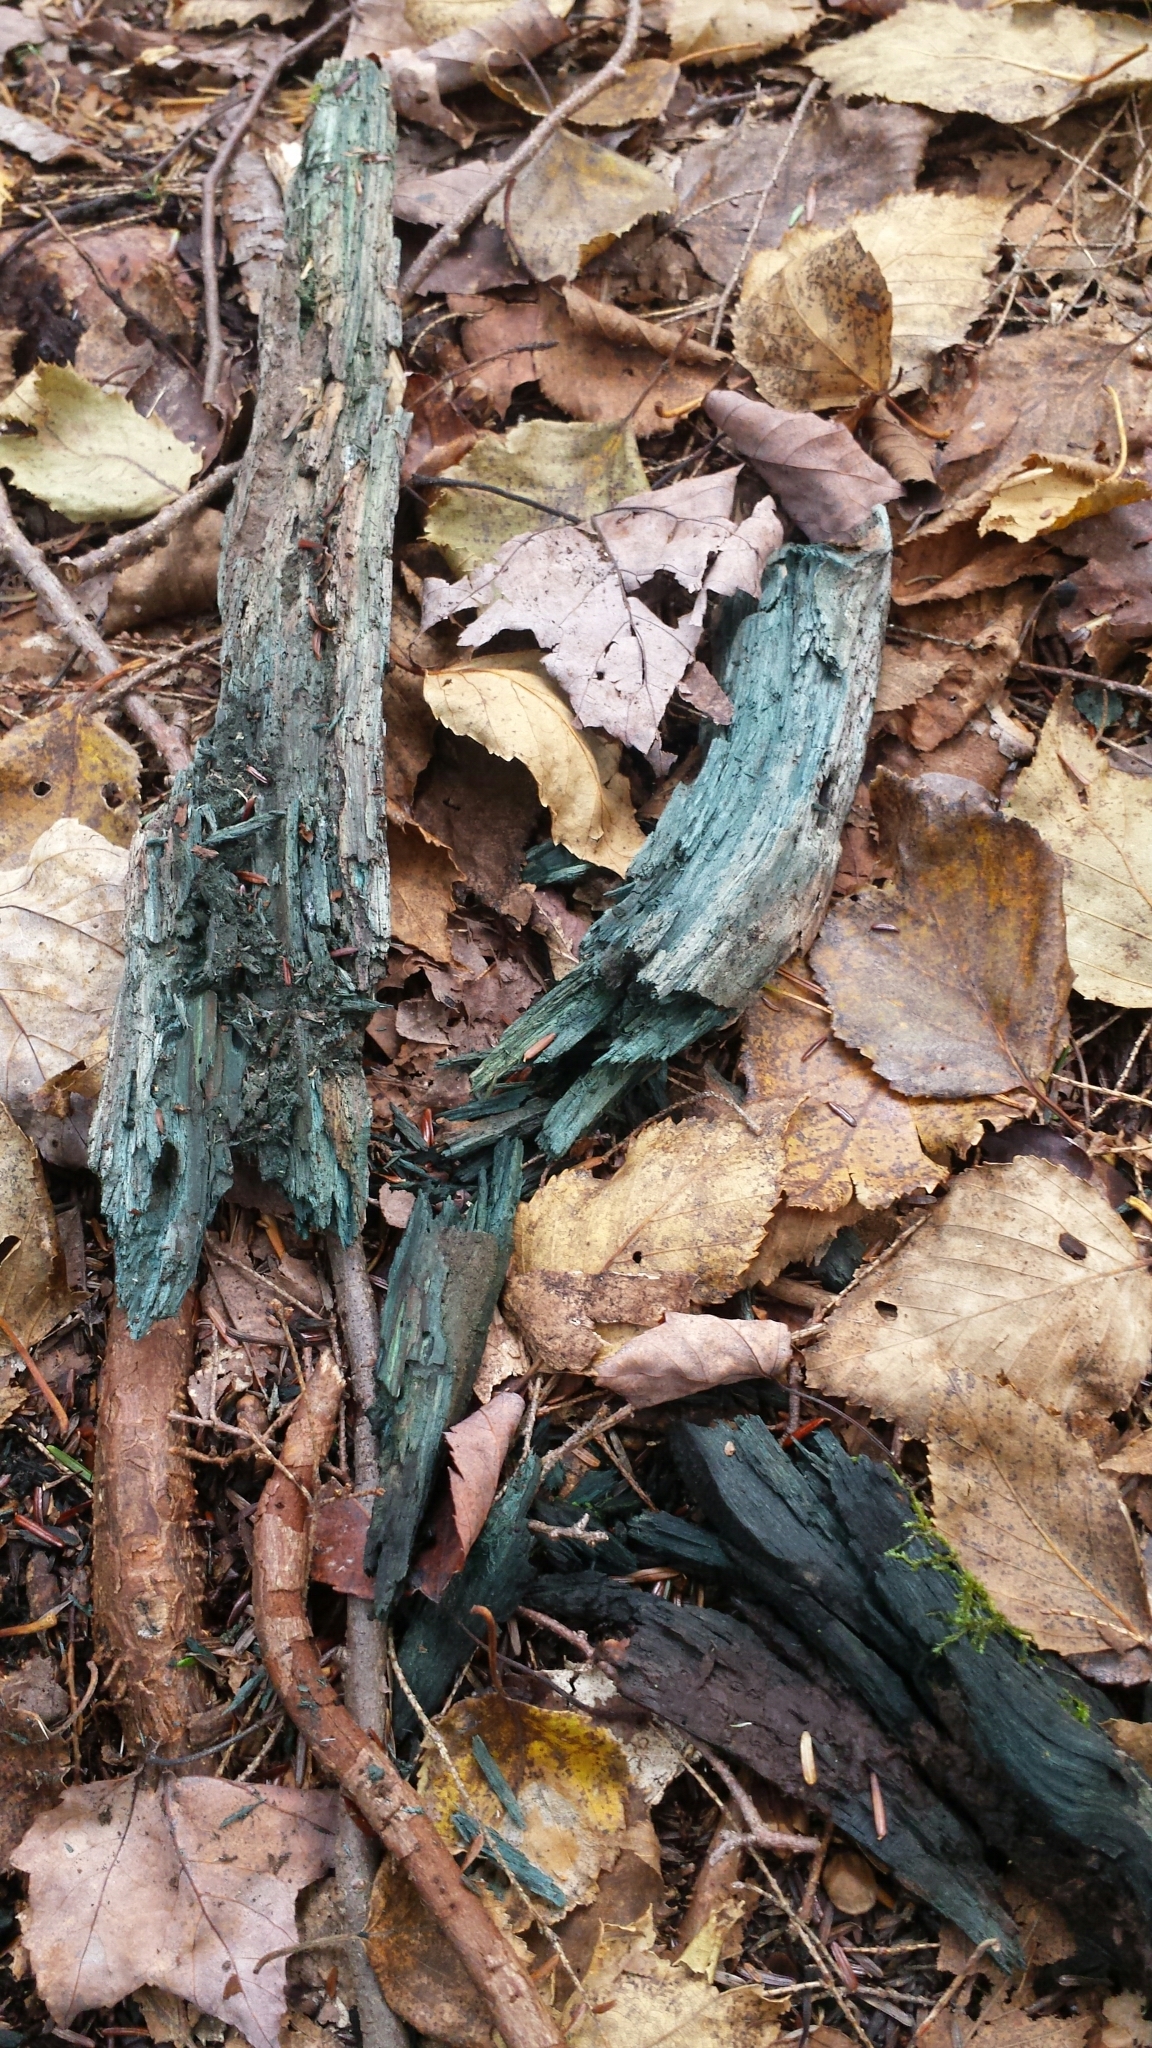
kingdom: Fungi
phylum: Ascomycota
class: Leotiomycetes
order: Helotiales
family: Chlorociboriaceae
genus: Chlorociboria
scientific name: Chlorociboria
